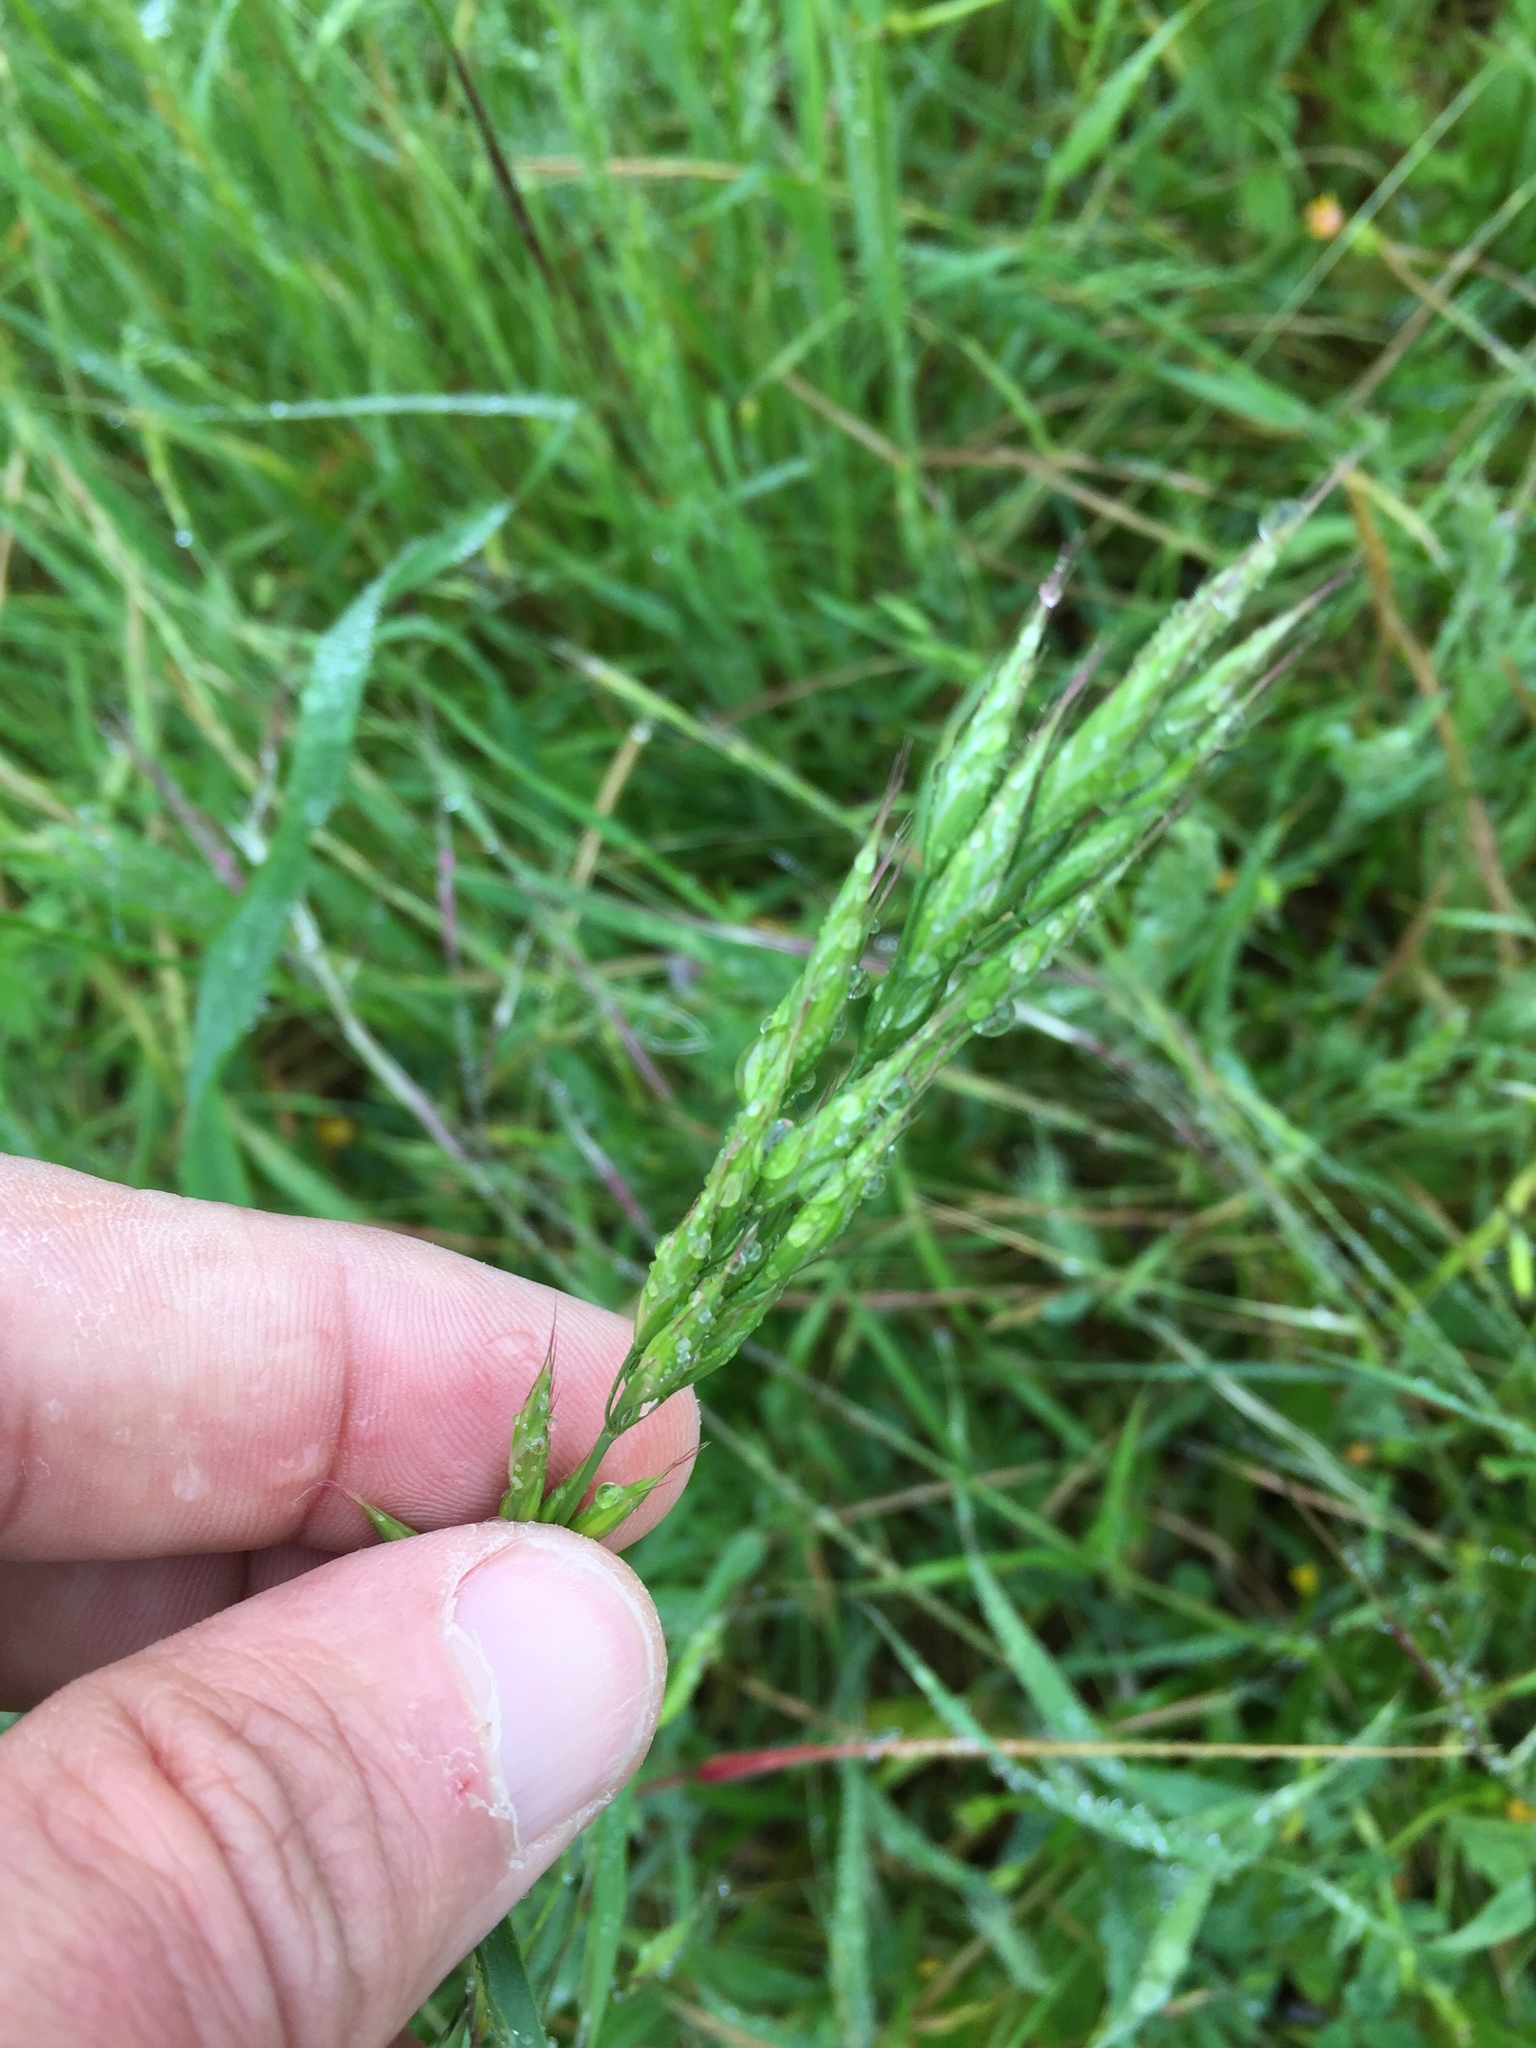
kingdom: Plantae
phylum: Tracheophyta
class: Liliopsida
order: Poales
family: Poaceae
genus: Bromus
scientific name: Bromus hordeaceus
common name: Soft brome
